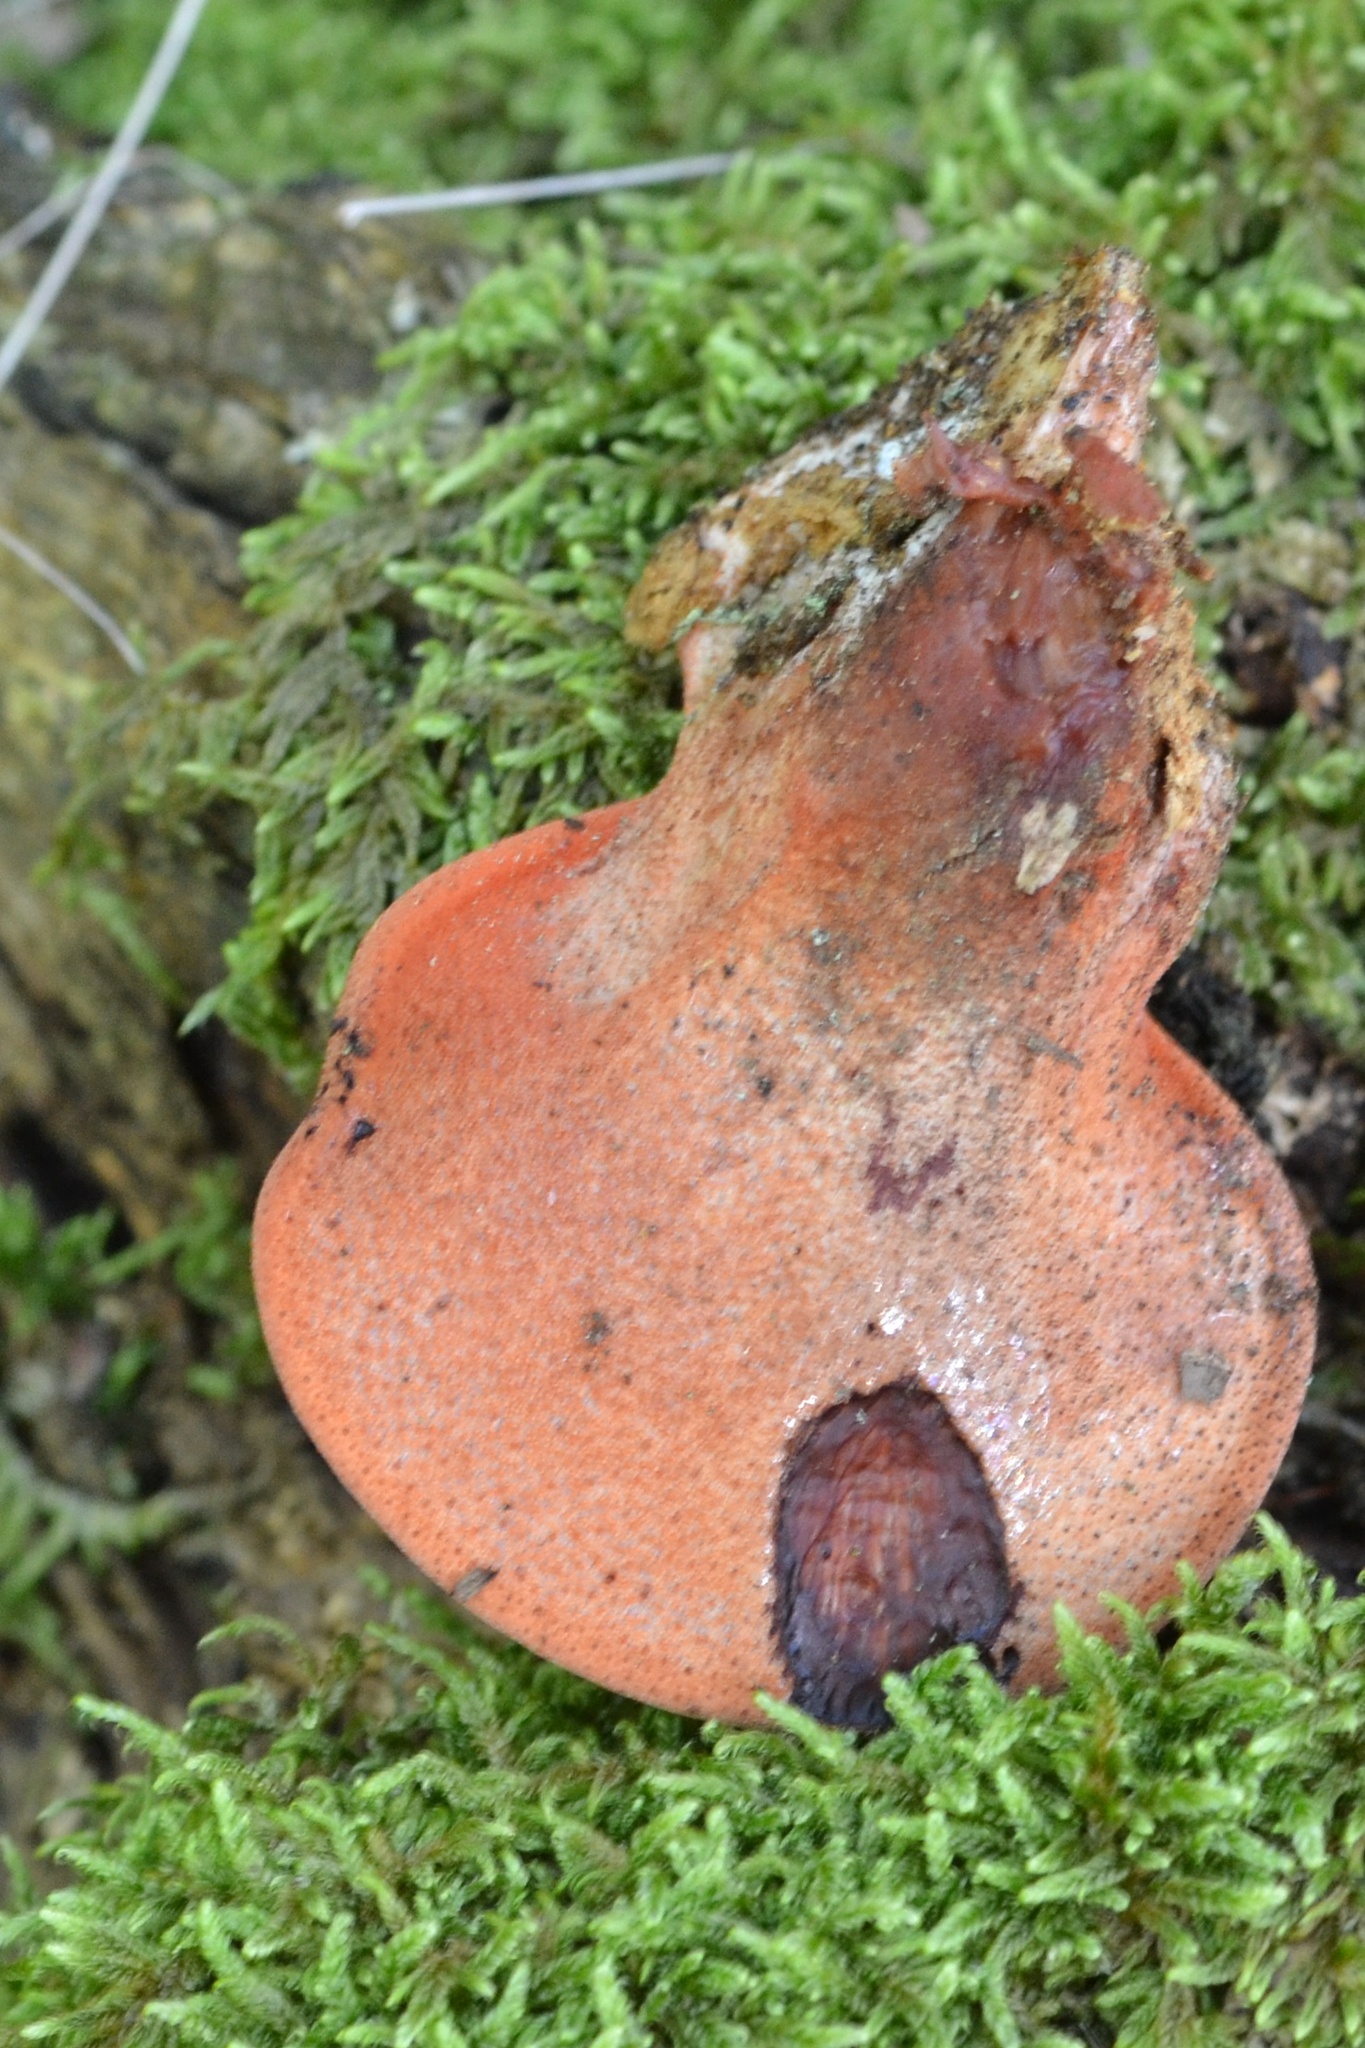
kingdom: Fungi
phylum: Basidiomycota
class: Agaricomycetes
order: Agaricales
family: Fistulinaceae
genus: Fistulina
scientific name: Fistulina hepatica
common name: Beef-steak fungus
